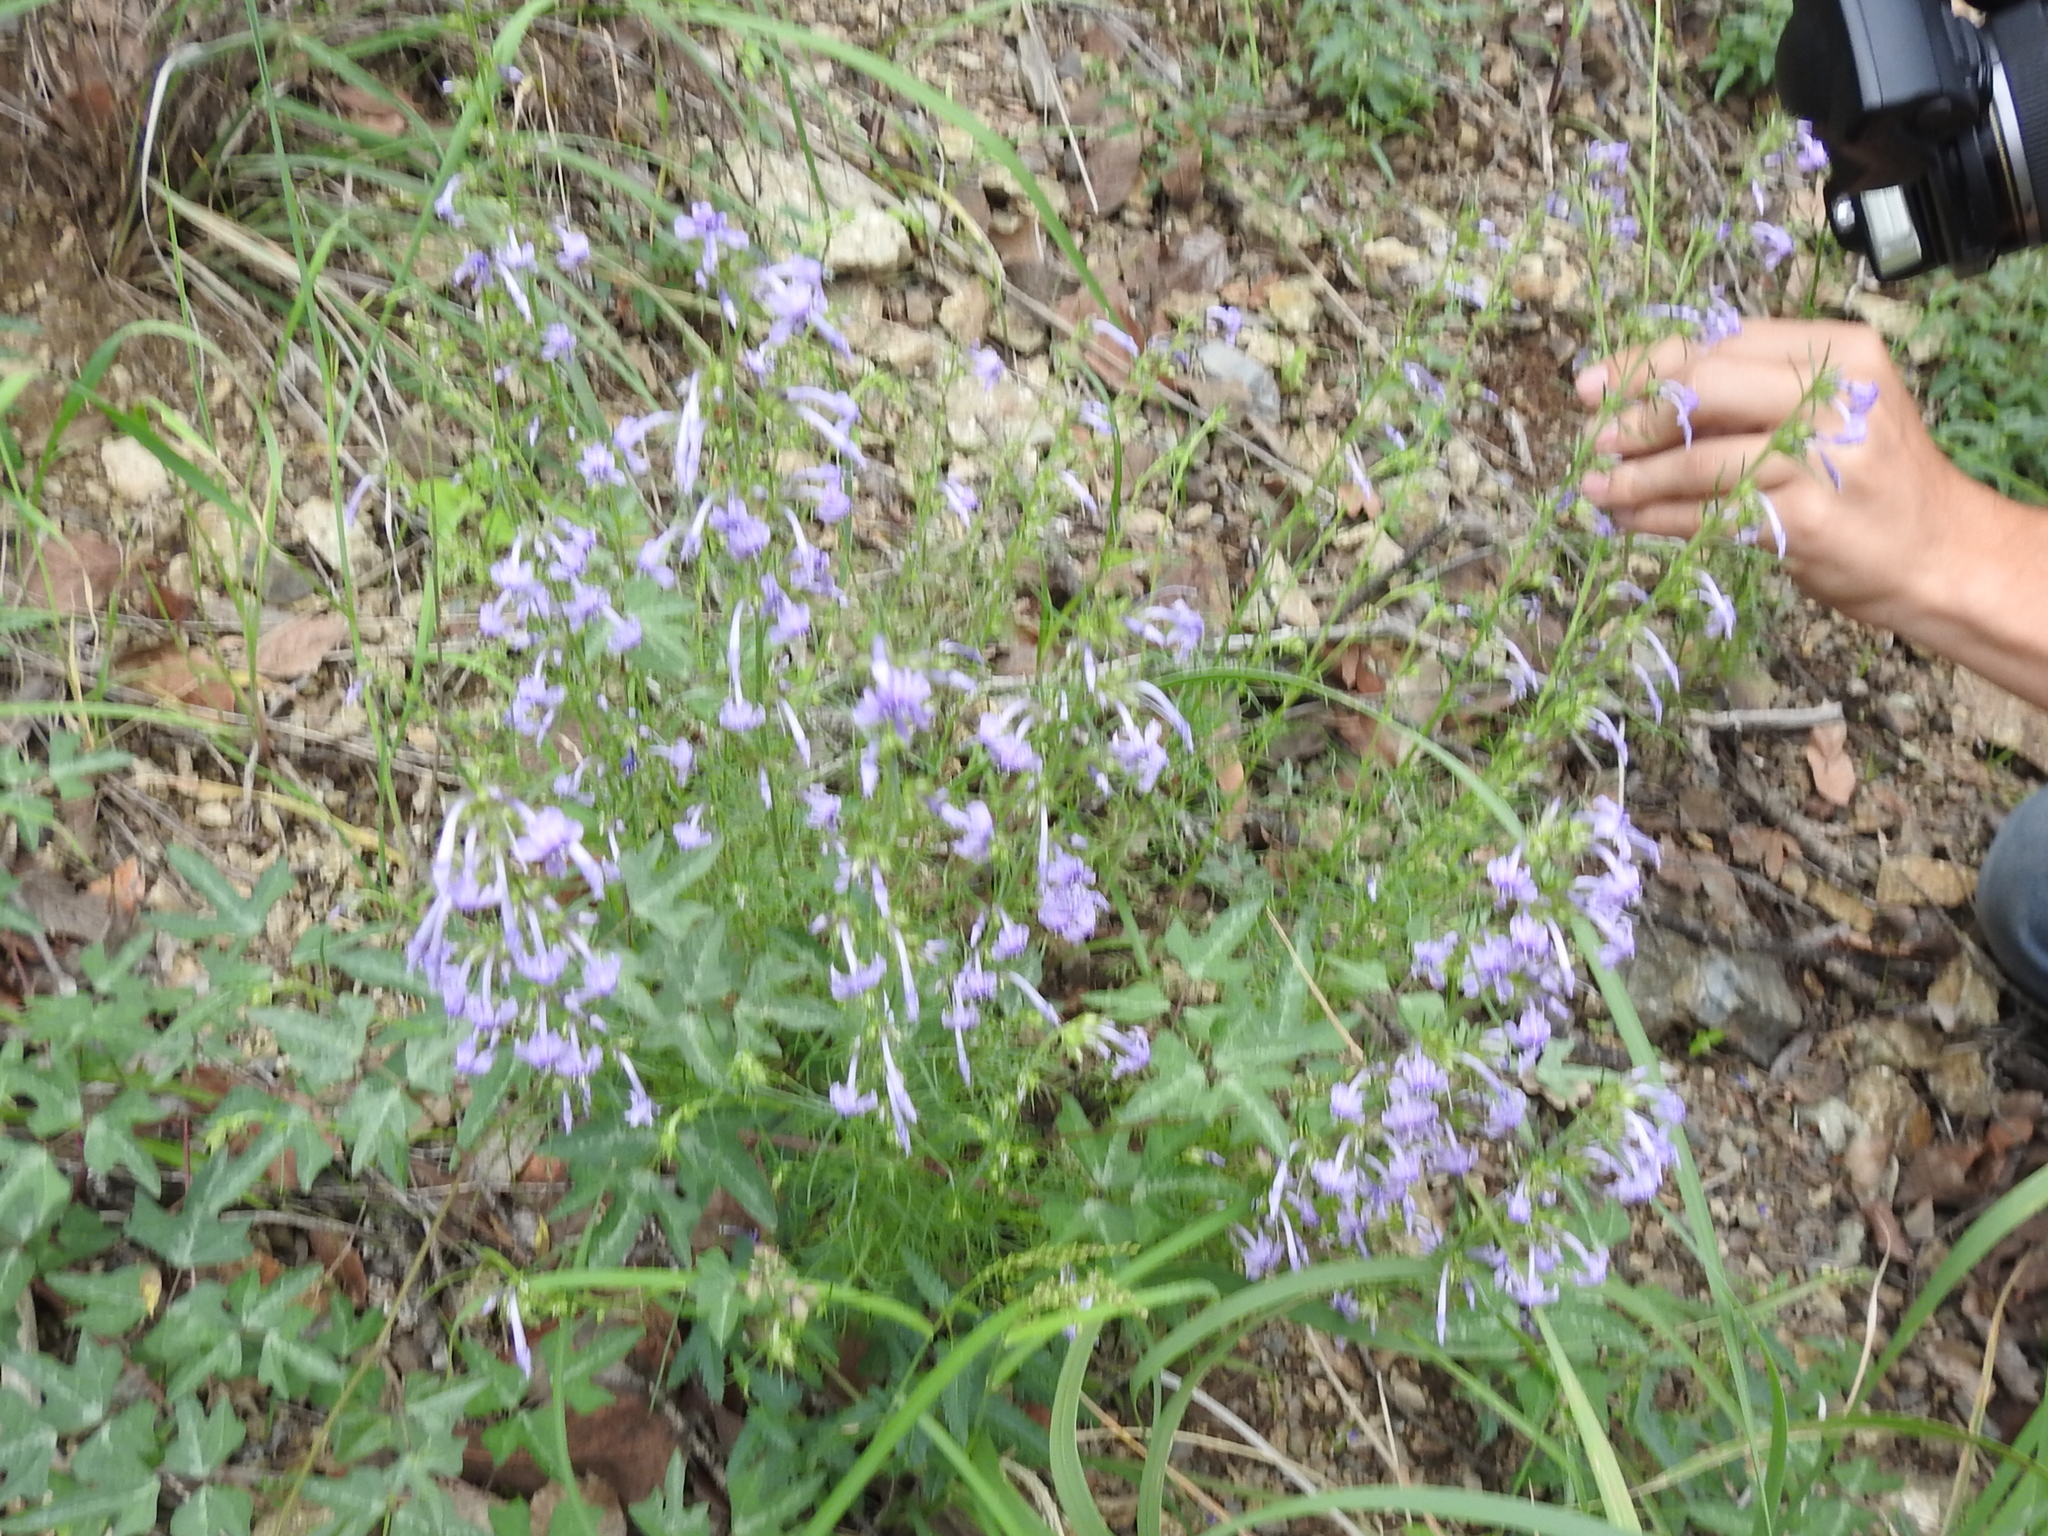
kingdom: Plantae
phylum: Tracheophyta
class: Magnoliopsida
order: Ericales
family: Polemoniaceae
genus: Ipomopsis
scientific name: Ipomopsis macombii
